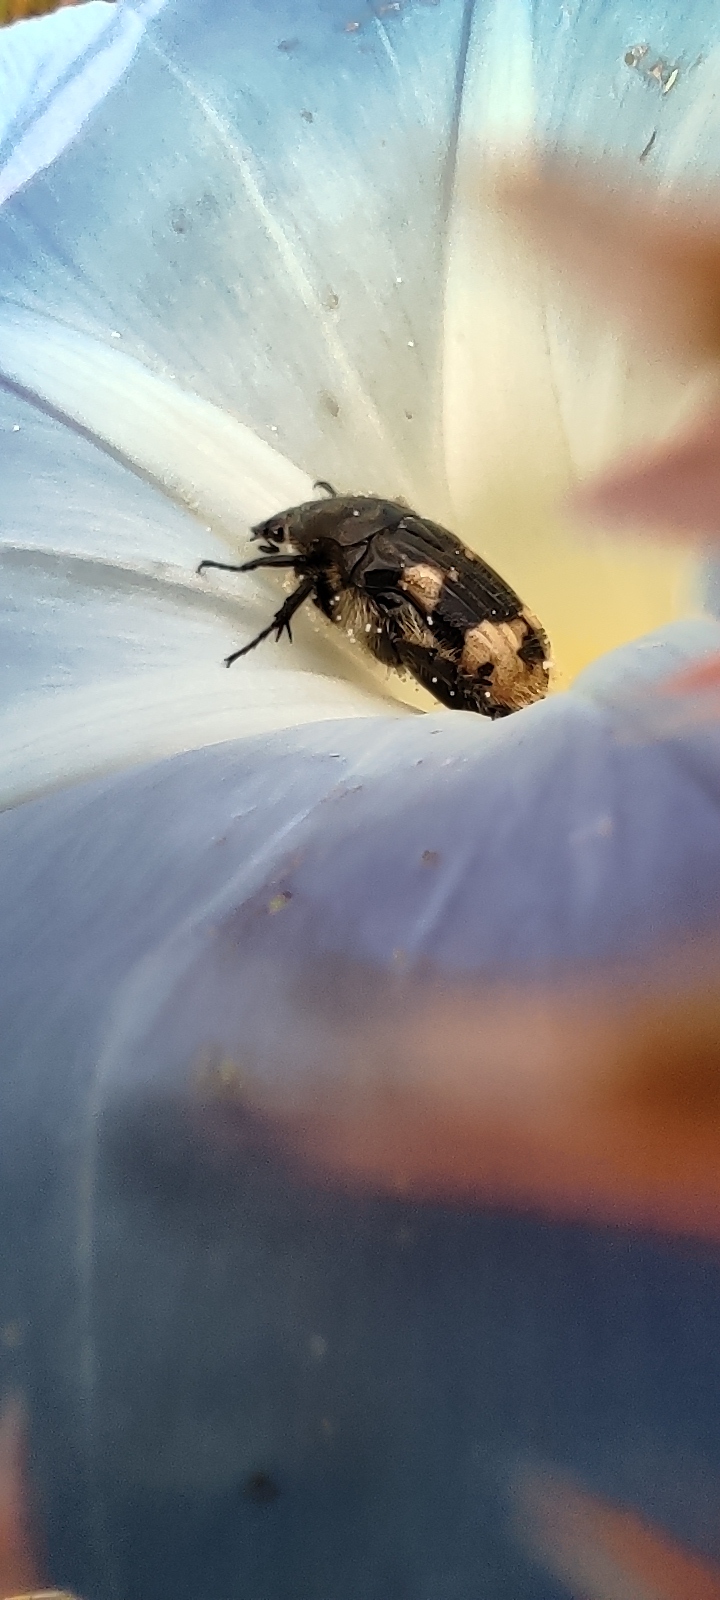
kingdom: Animalia
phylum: Arthropoda
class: Insecta
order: Coleoptera
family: Scarabaeidae
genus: Euphoria
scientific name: Euphoria basalis
